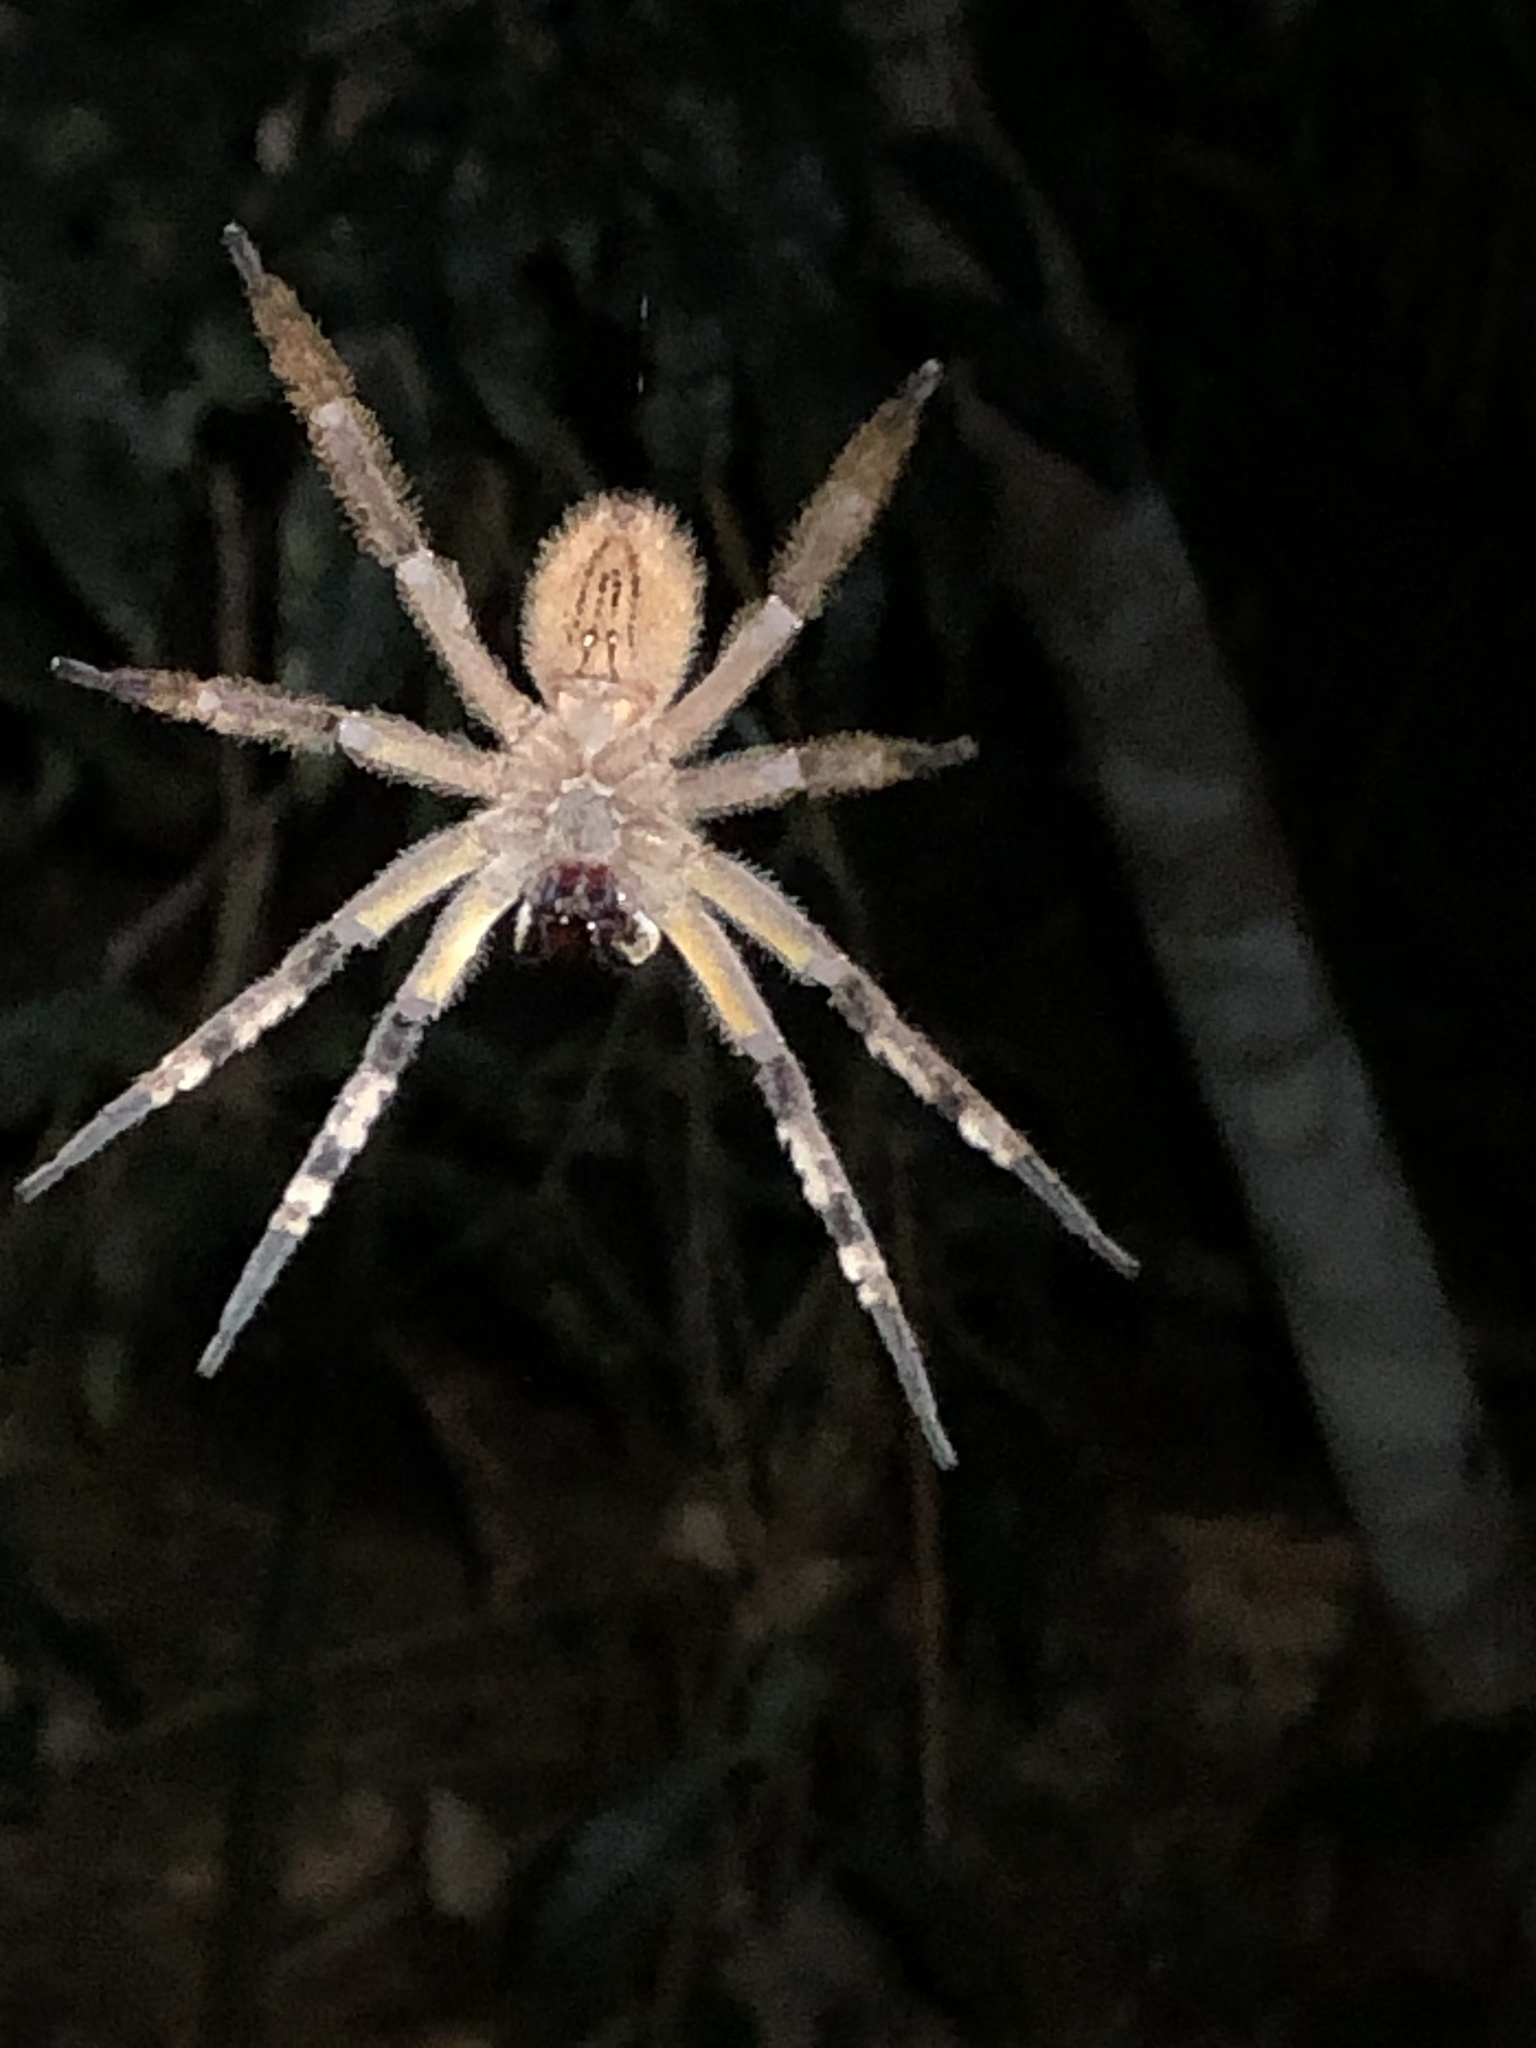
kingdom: Animalia
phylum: Arthropoda
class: Arachnida
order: Araneae
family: Ctenidae
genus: Phoneutria
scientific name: Phoneutria boliviensis
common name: Wandering spiders
